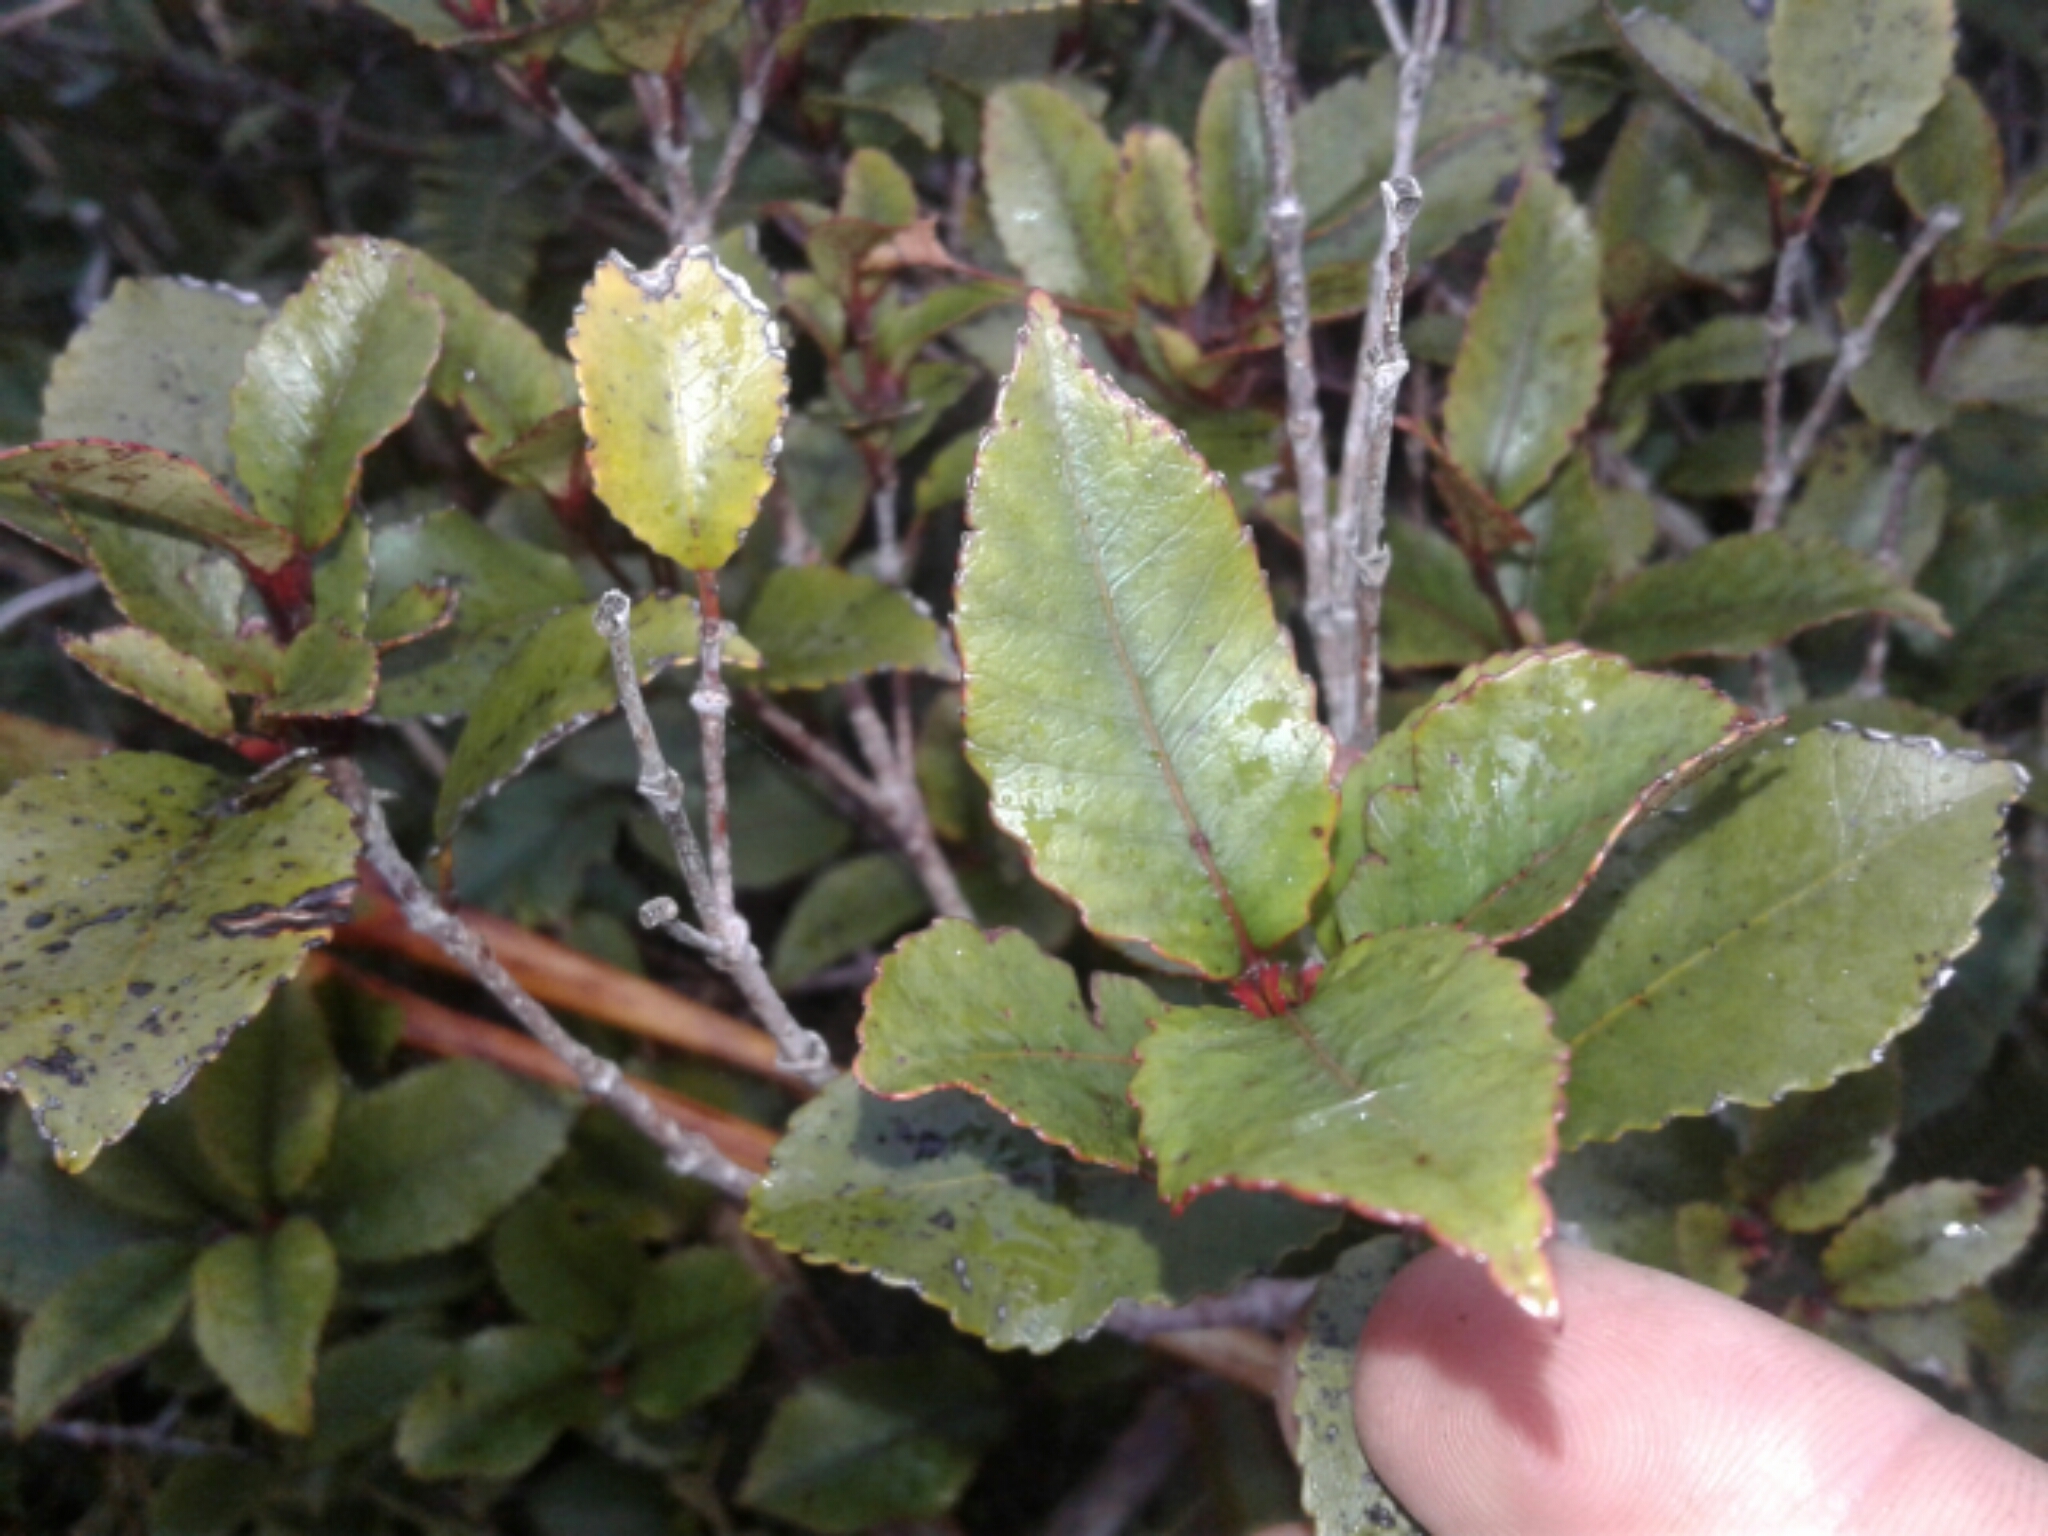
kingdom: Plantae
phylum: Tracheophyta
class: Magnoliopsida
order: Oxalidales
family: Cunoniaceae
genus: Pterophylla
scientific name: Pterophylla racemosa
